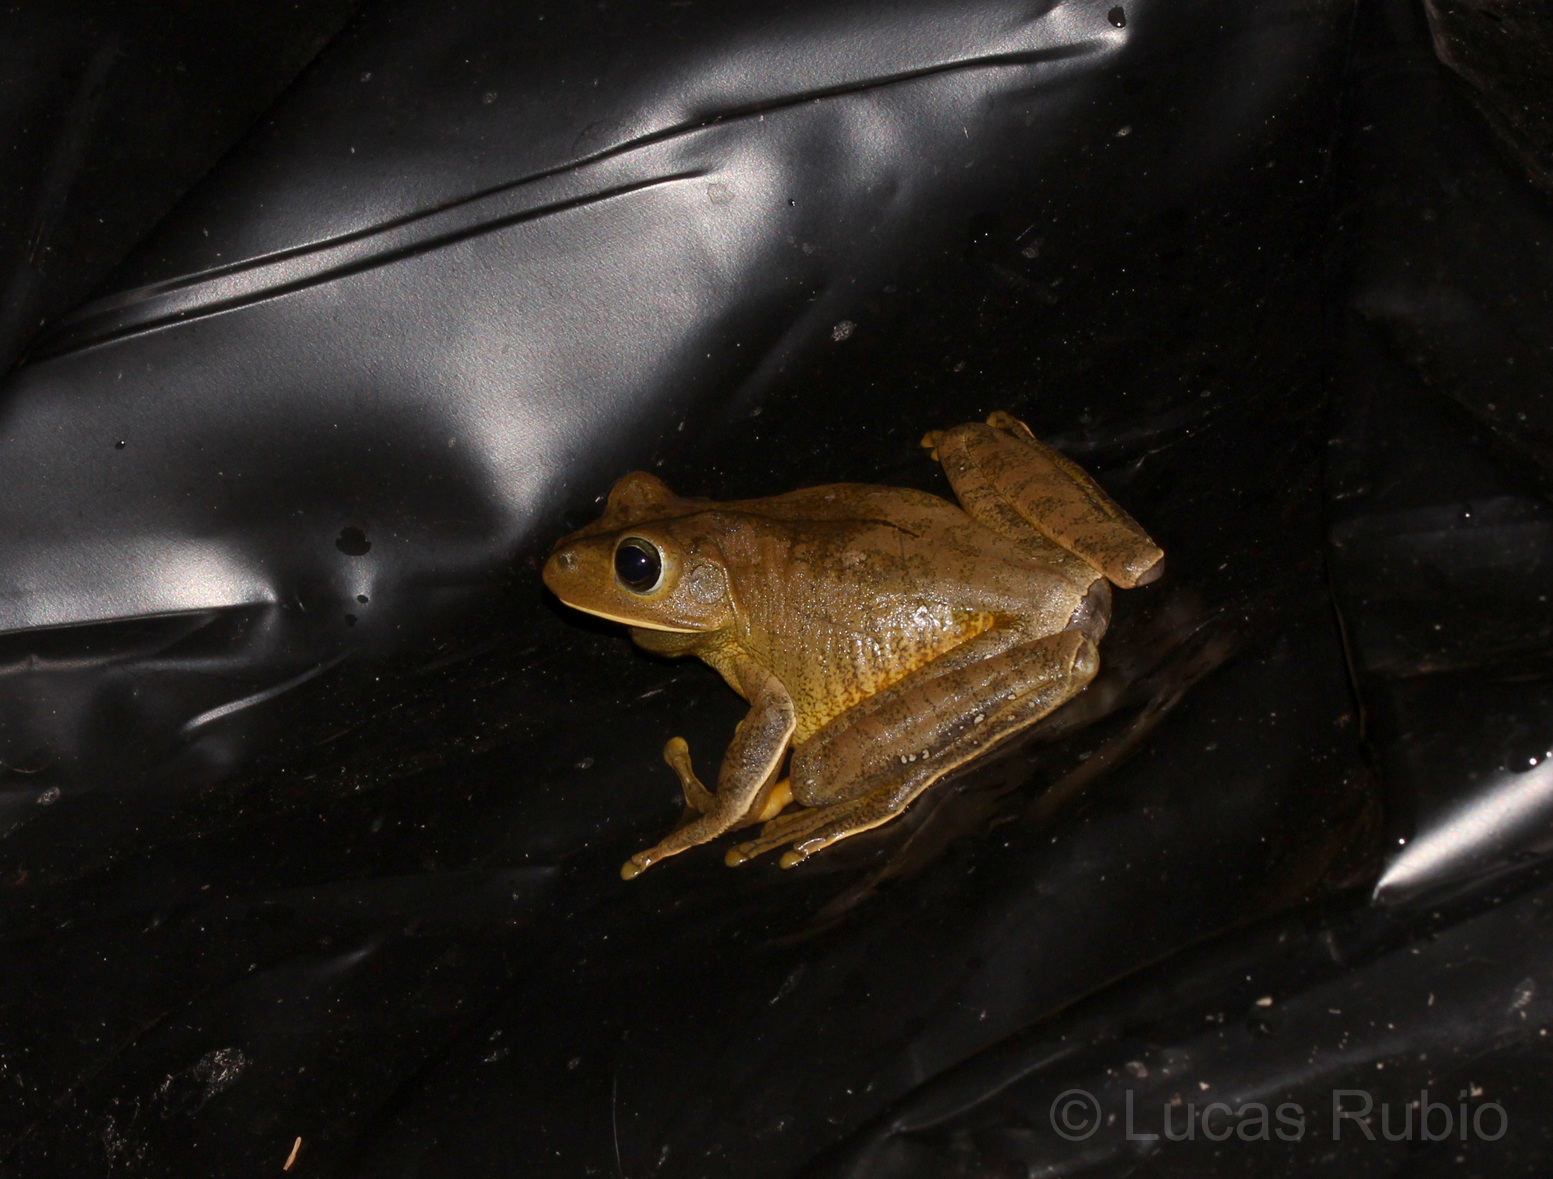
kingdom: Animalia
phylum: Chordata
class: Amphibia
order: Anura
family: Hylidae
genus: Boana
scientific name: Boana faber
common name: Blacksmith tree frog
